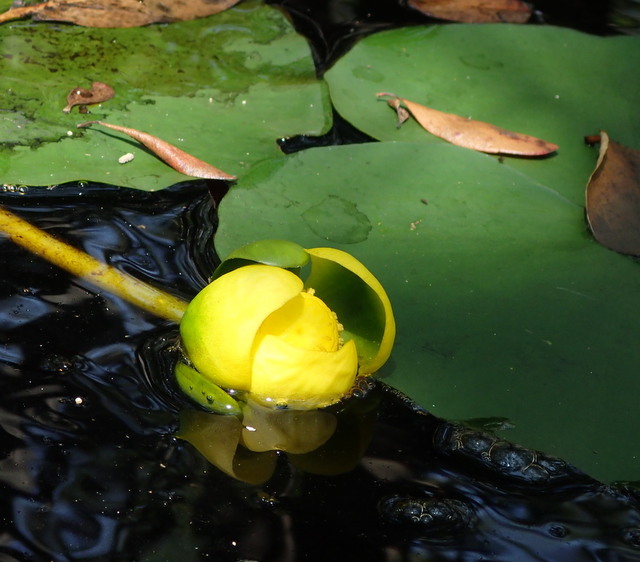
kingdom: Plantae
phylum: Tracheophyta
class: Magnoliopsida
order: Nymphaeales
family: Nymphaeaceae
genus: Nuphar
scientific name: Nuphar advena
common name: Spatter-dock
